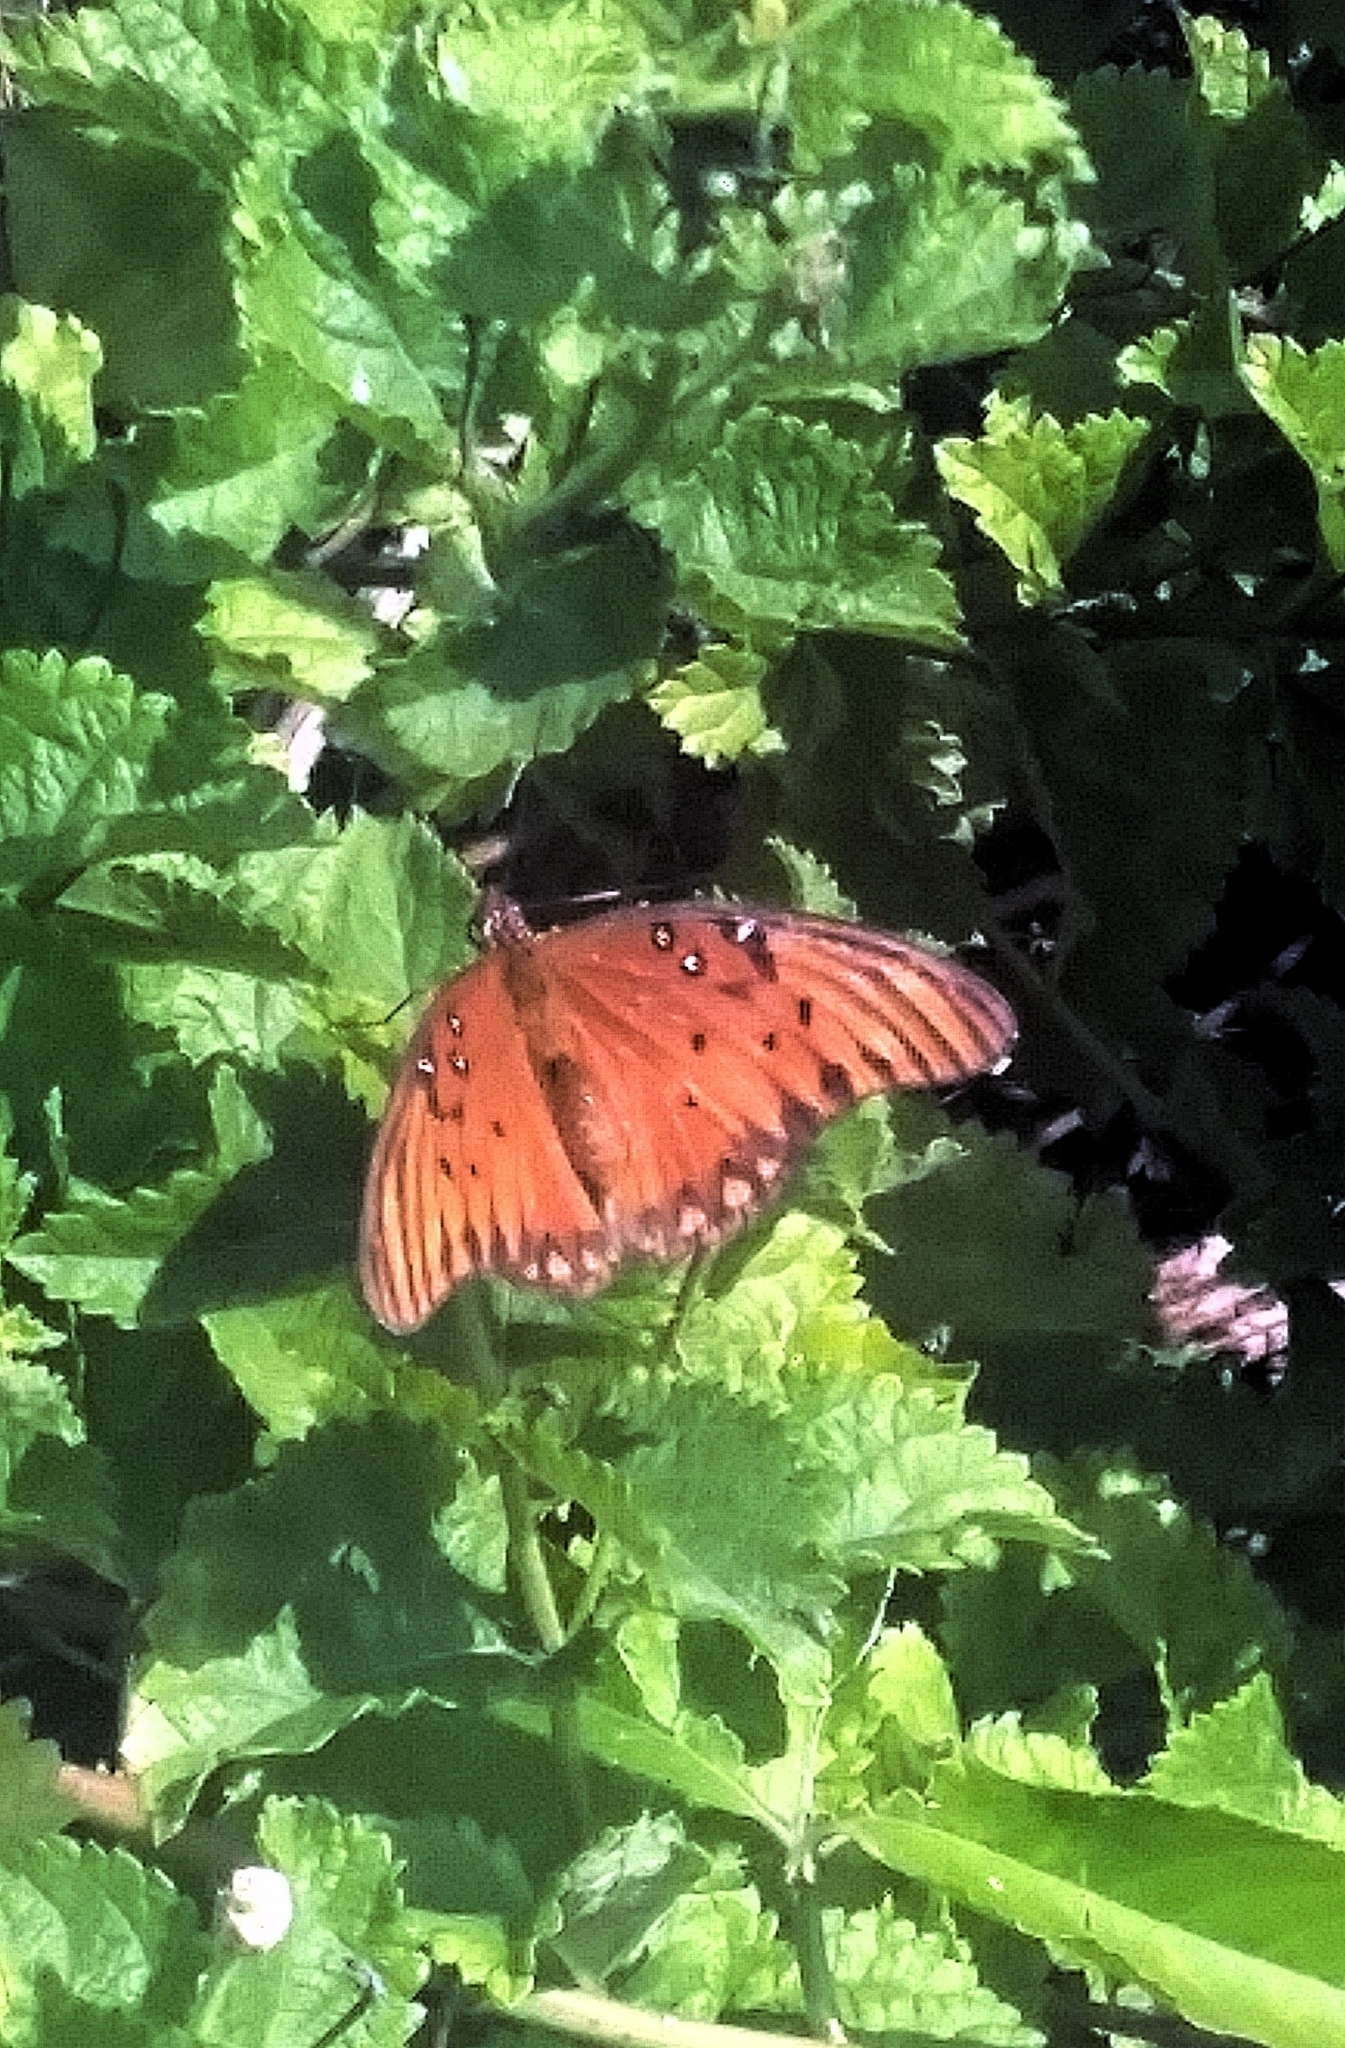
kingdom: Animalia
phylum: Arthropoda
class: Insecta
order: Lepidoptera
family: Nymphalidae
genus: Dione
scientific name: Dione vanillae
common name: Gulf fritillary
